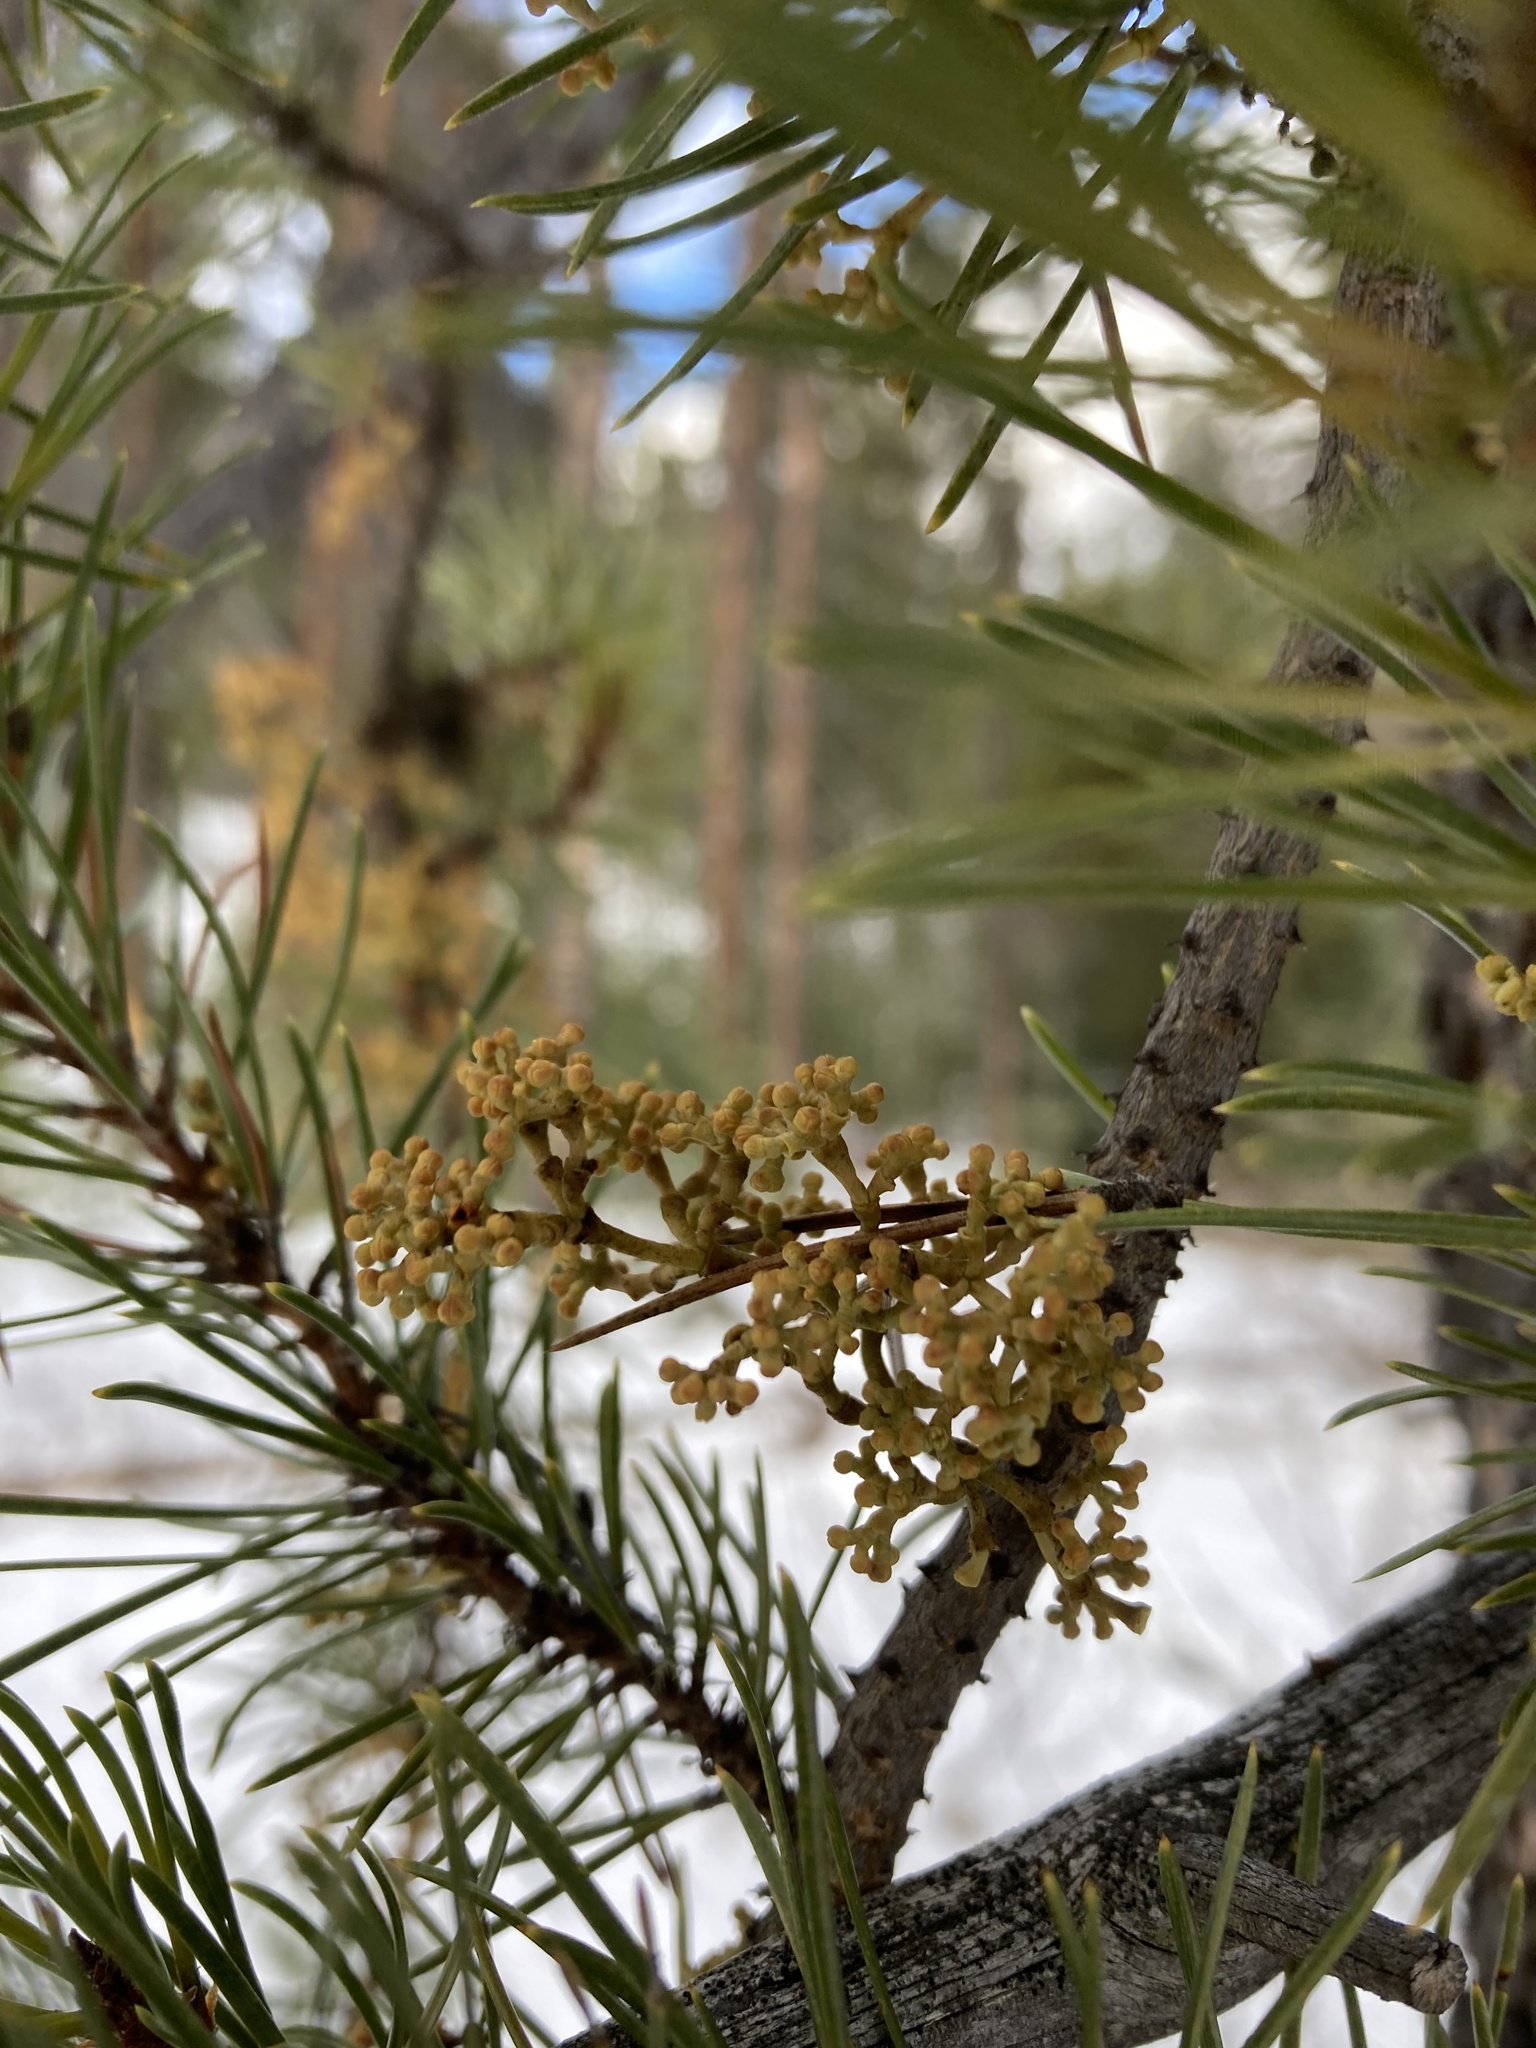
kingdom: Plantae
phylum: Tracheophyta
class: Magnoliopsida
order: Santalales
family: Viscaceae
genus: Arceuthobium
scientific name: Arceuthobium americanum
